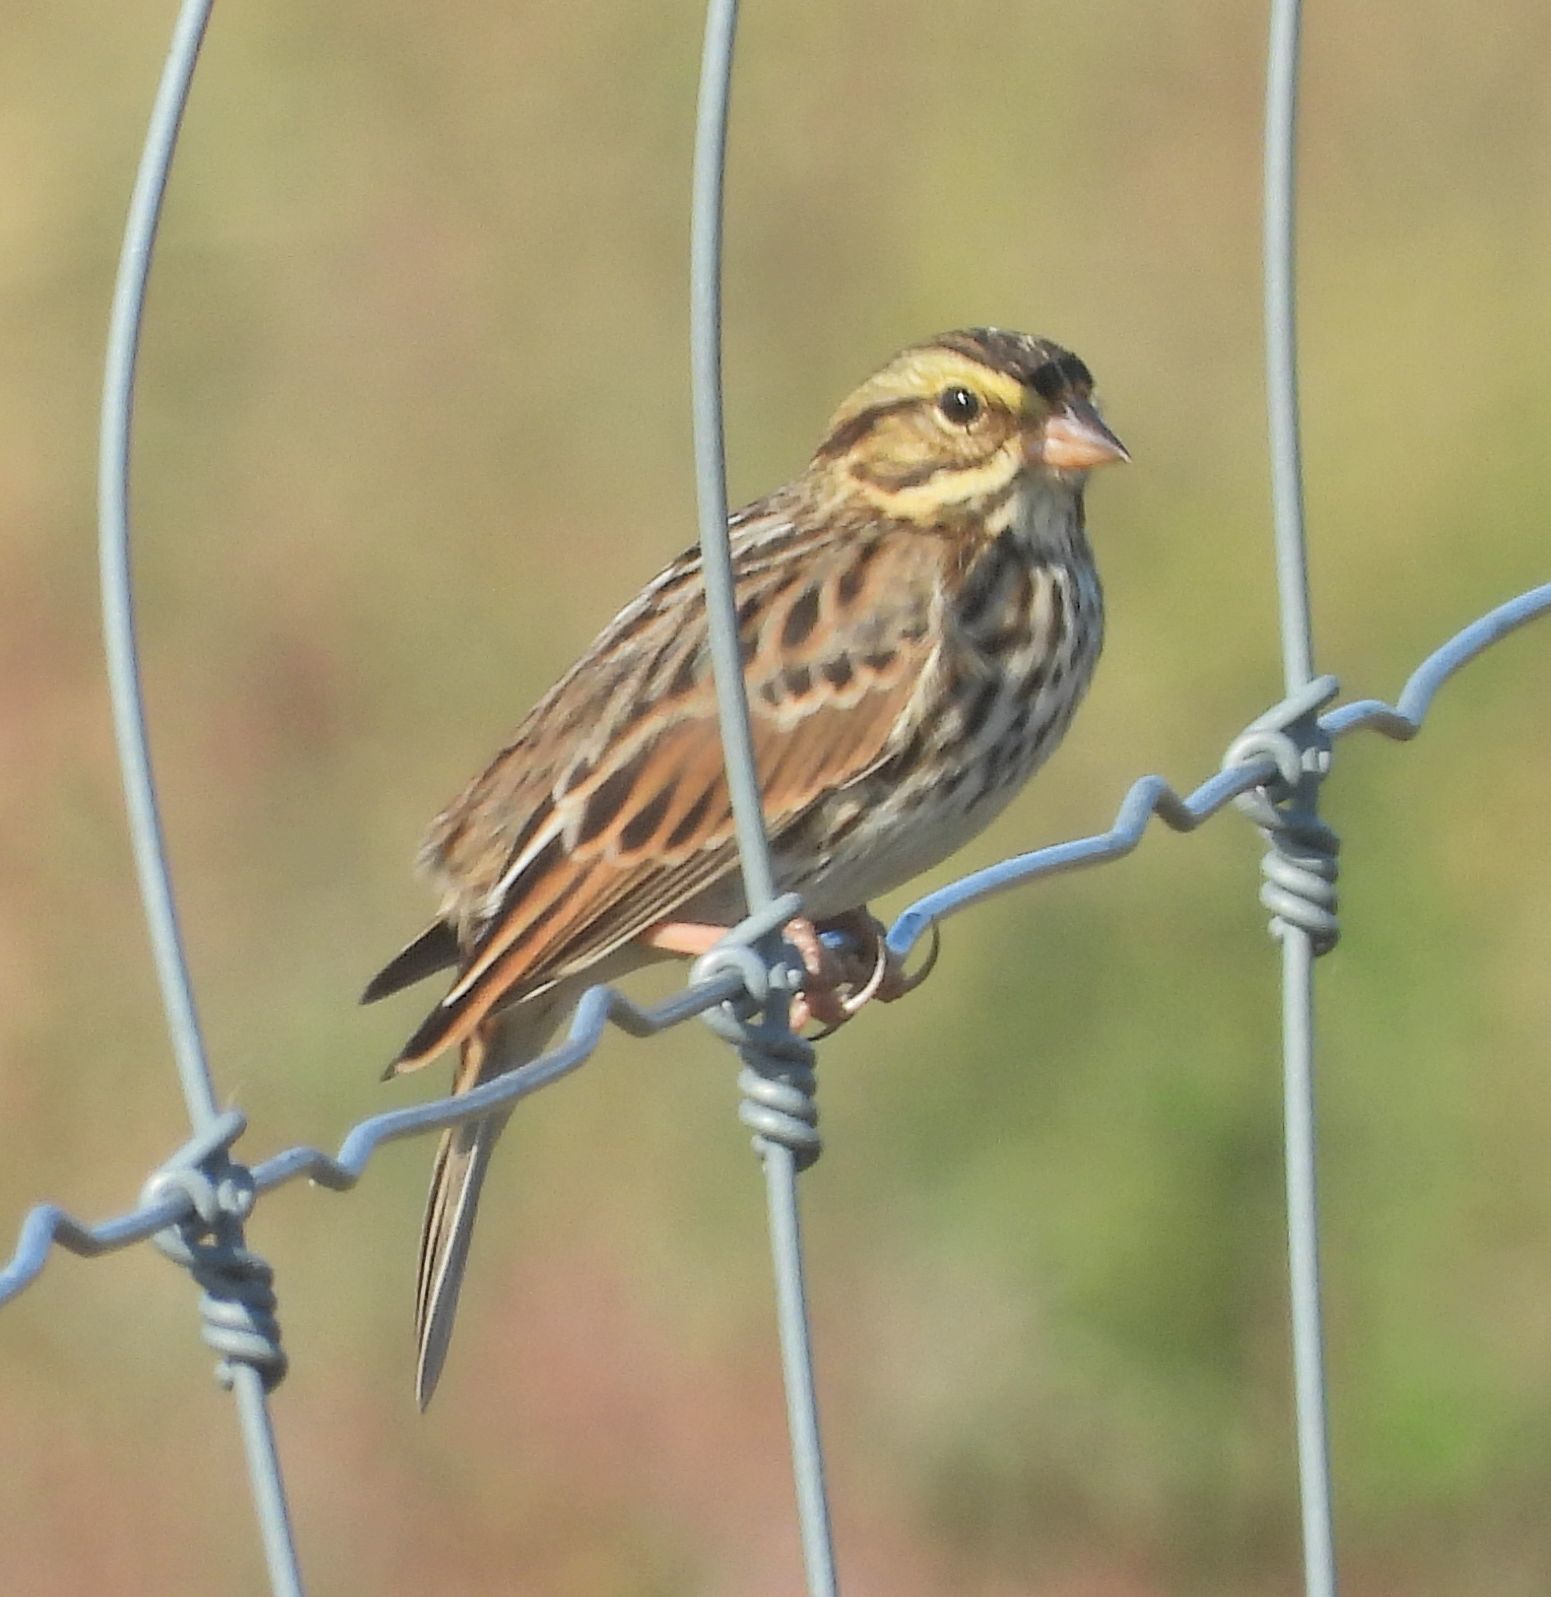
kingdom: Animalia
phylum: Chordata
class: Aves
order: Passeriformes
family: Passerellidae
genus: Passerculus
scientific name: Passerculus sandwichensis
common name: Savannah sparrow
